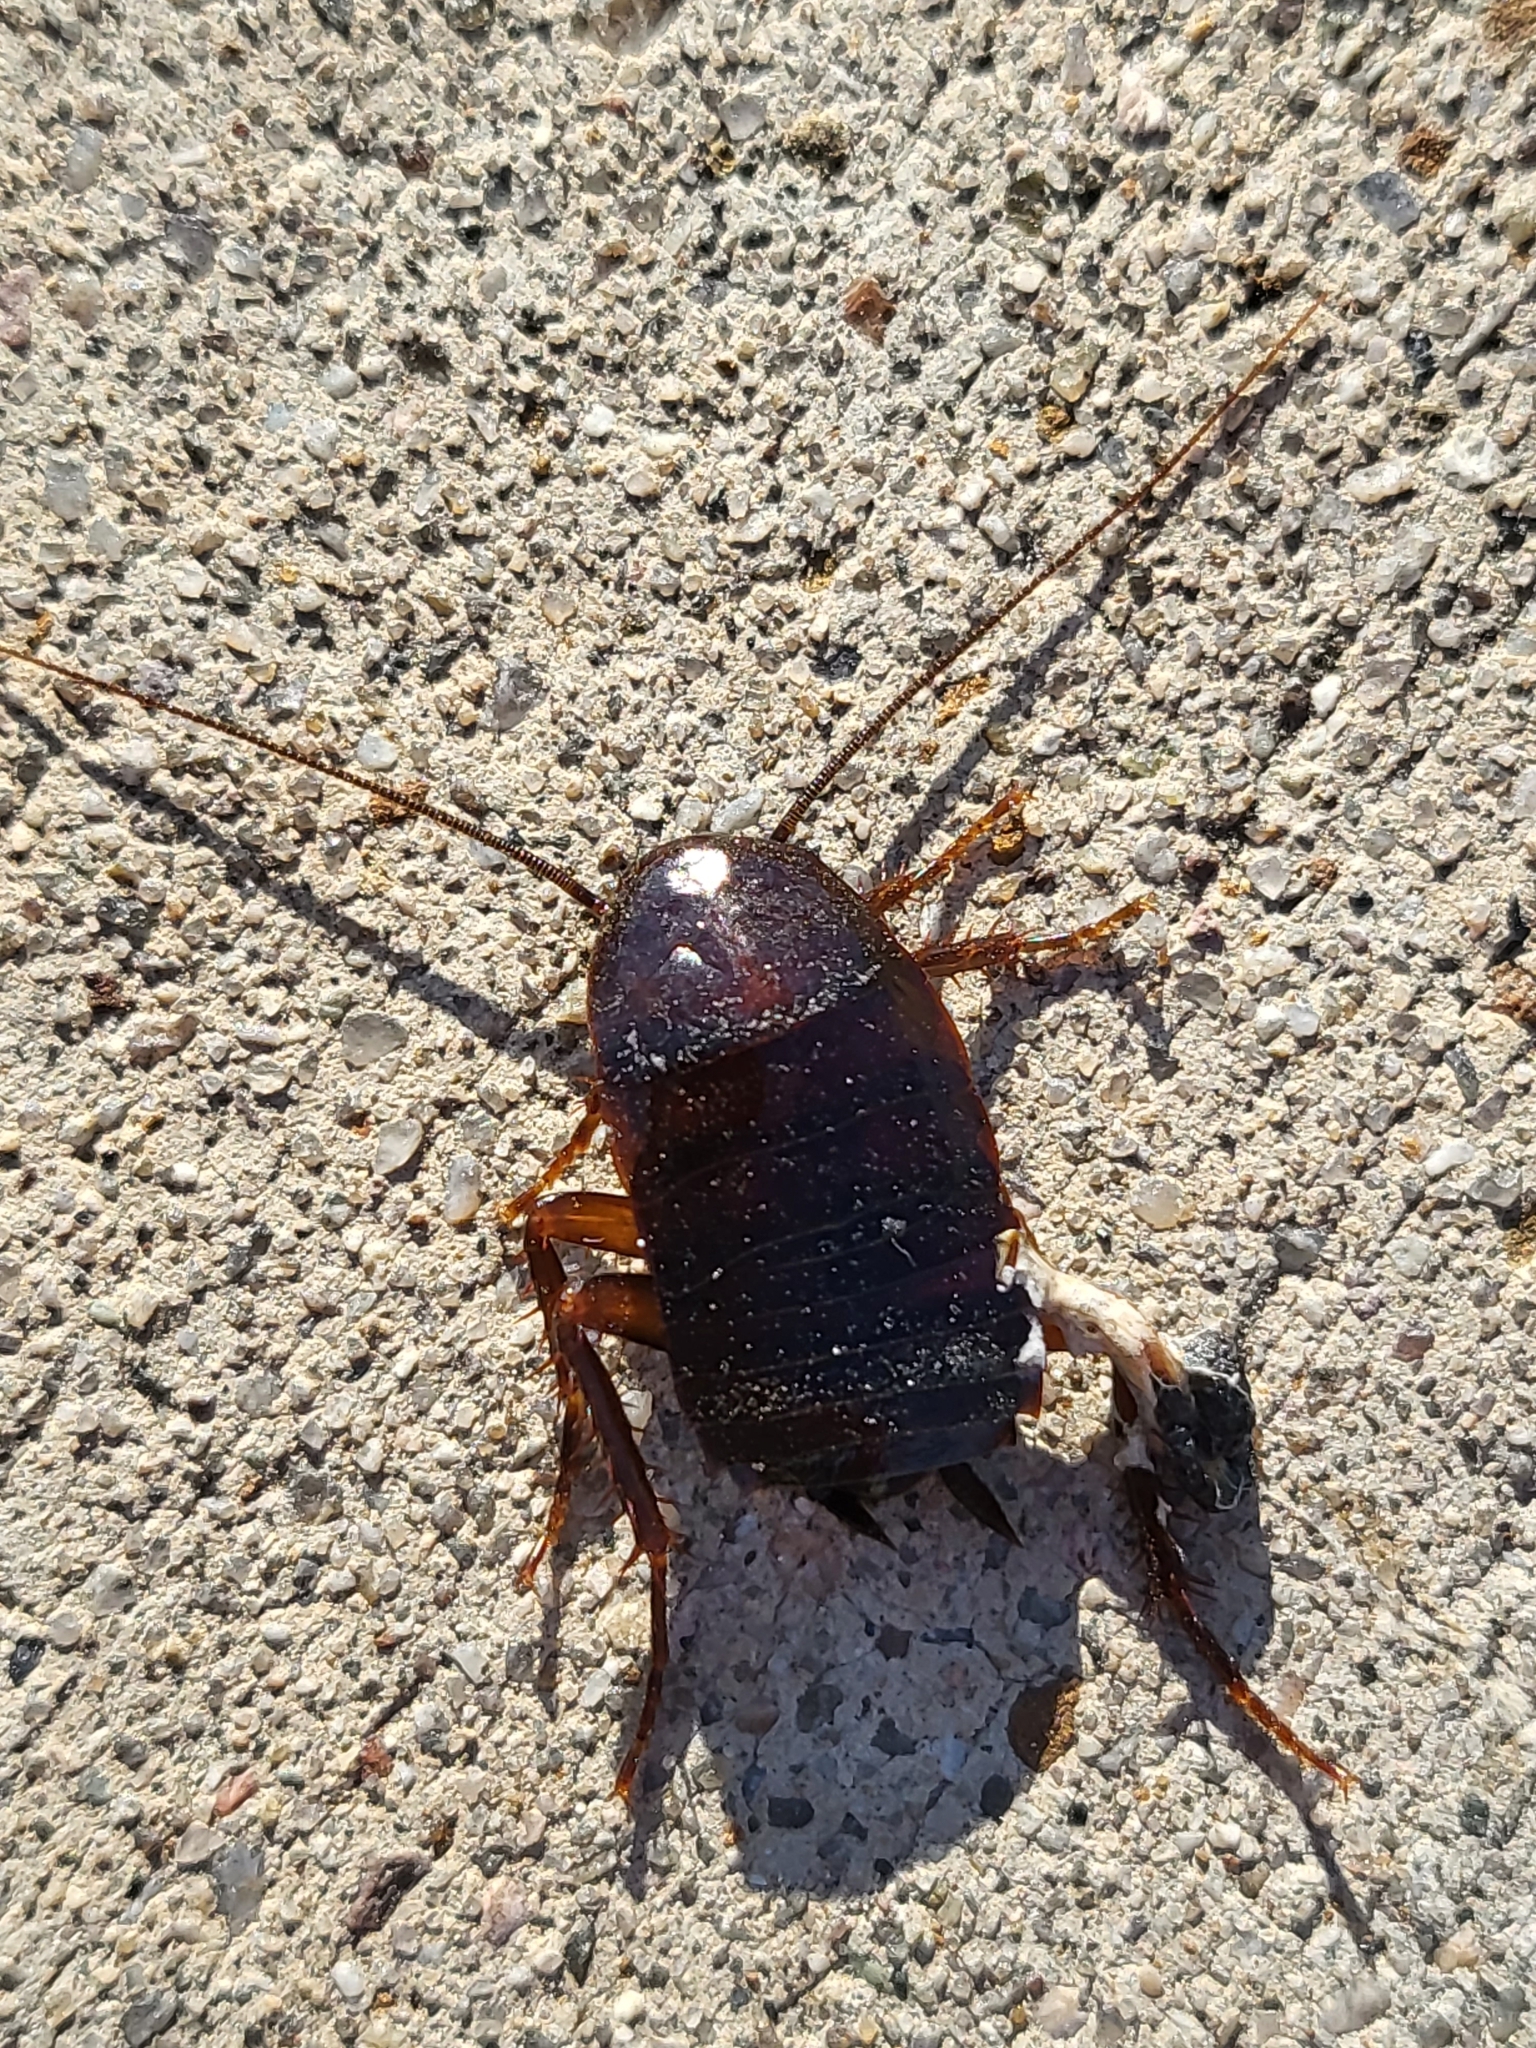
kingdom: Animalia
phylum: Arthropoda
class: Insecta
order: Blattodea
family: Blattidae
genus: Blatta
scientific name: Blatta orientalis
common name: Oriental cockroach
